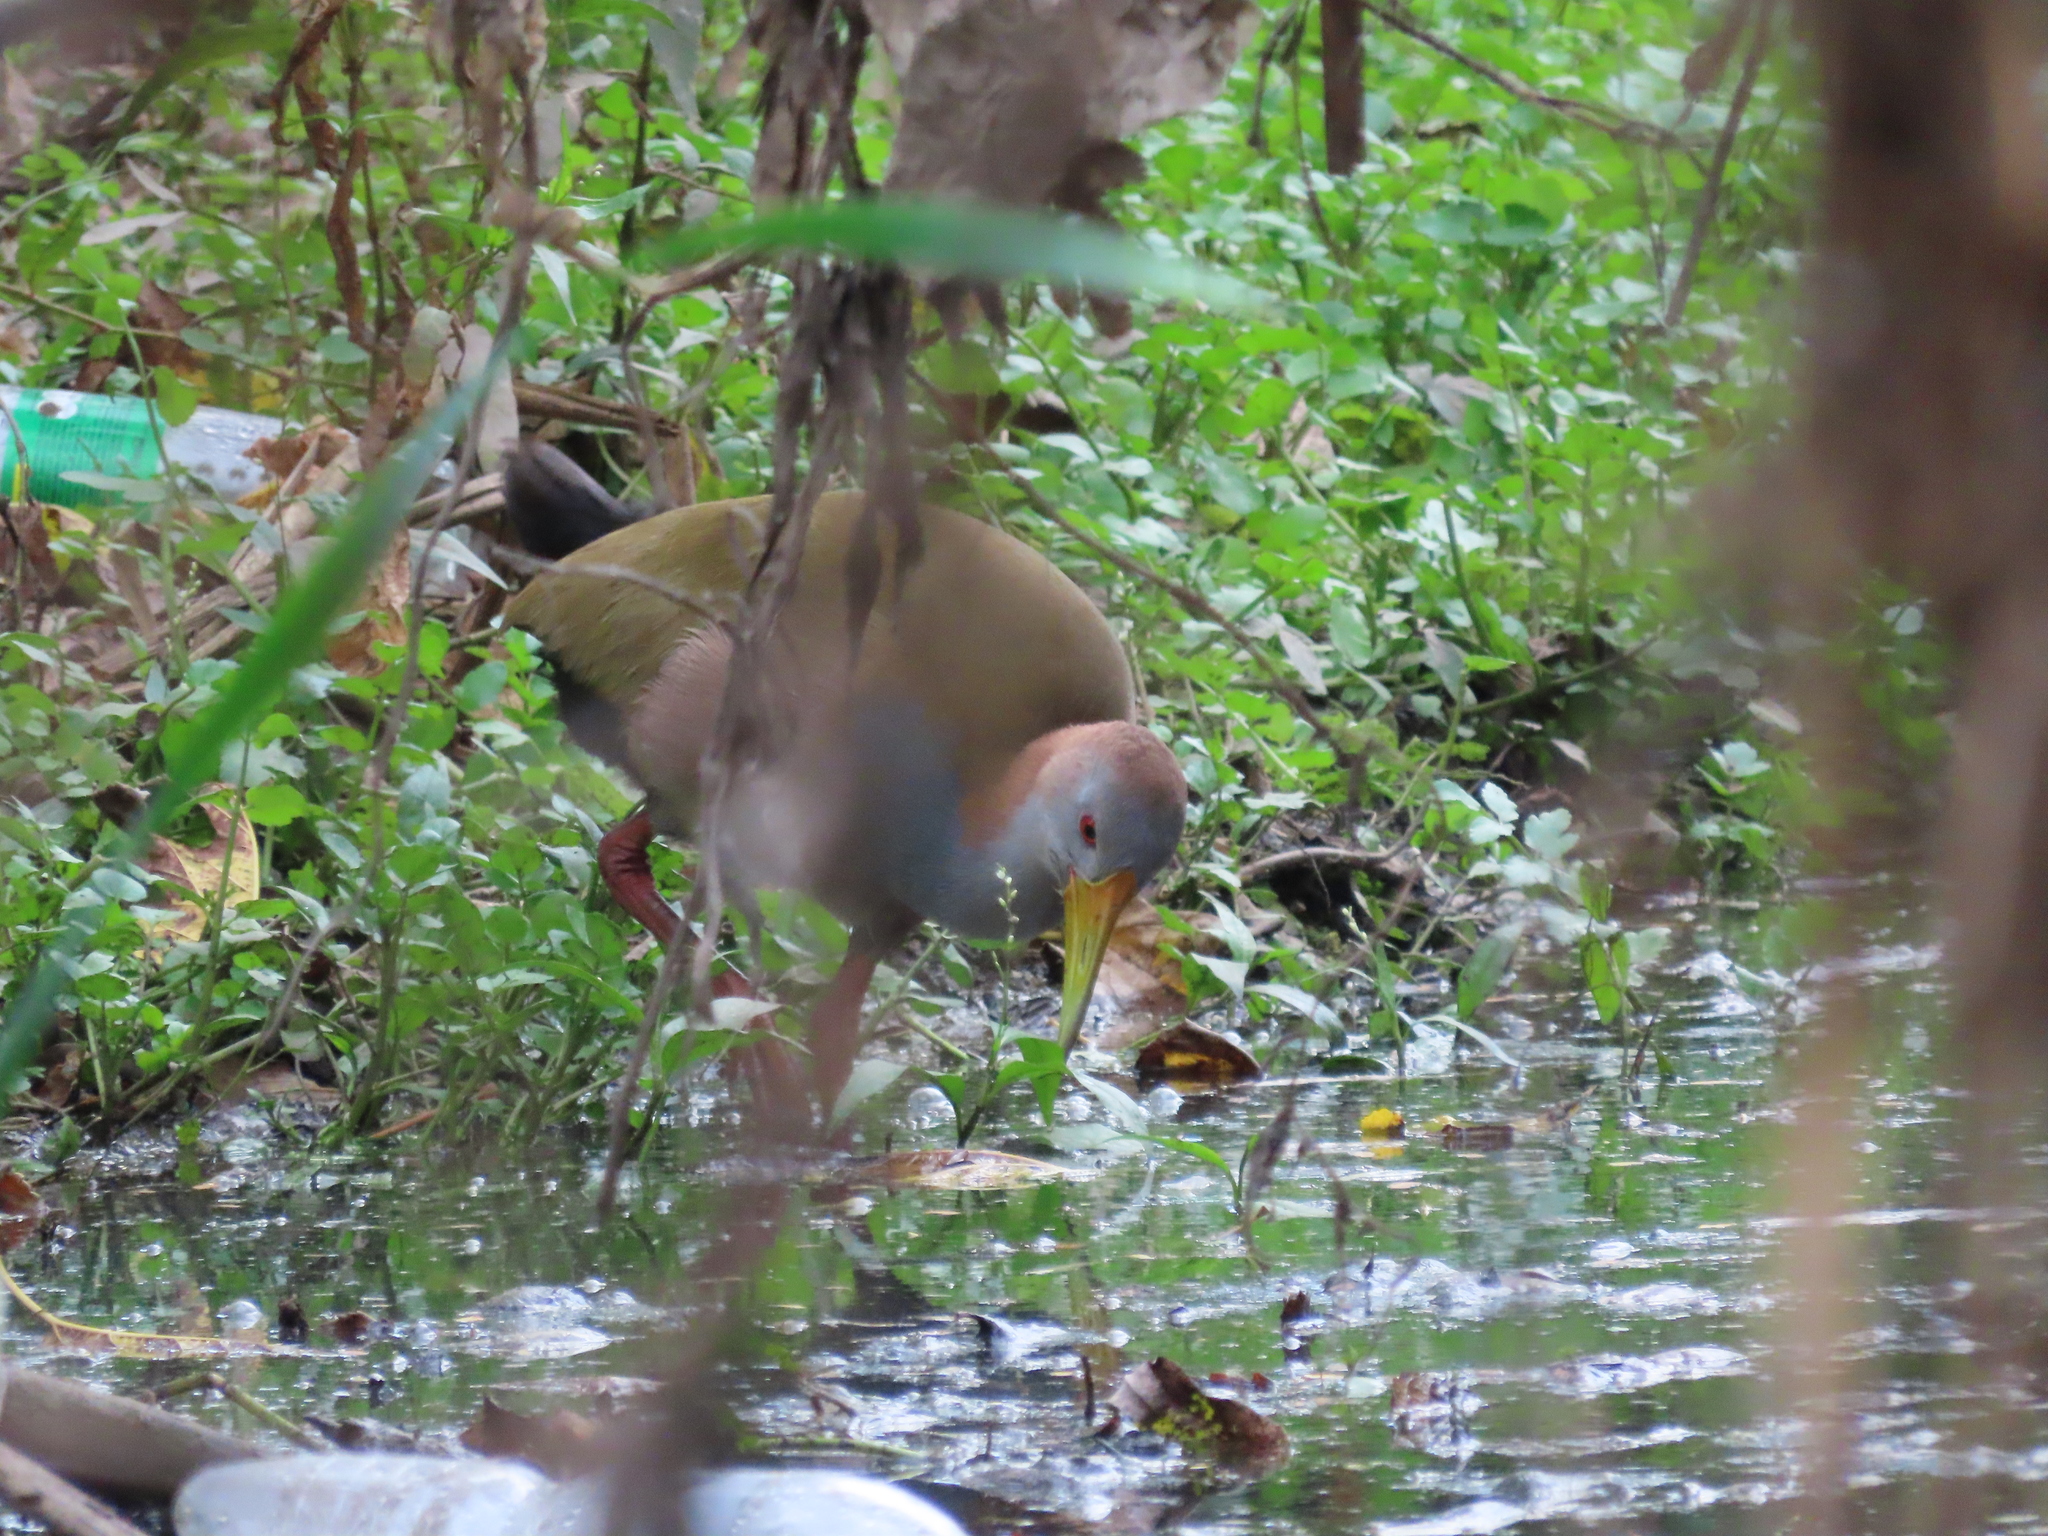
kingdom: Animalia
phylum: Chordata
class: Aves
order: Gruiformes
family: Rallidae
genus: Aramides
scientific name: Aramides ypecaha
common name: Giant wood rail
